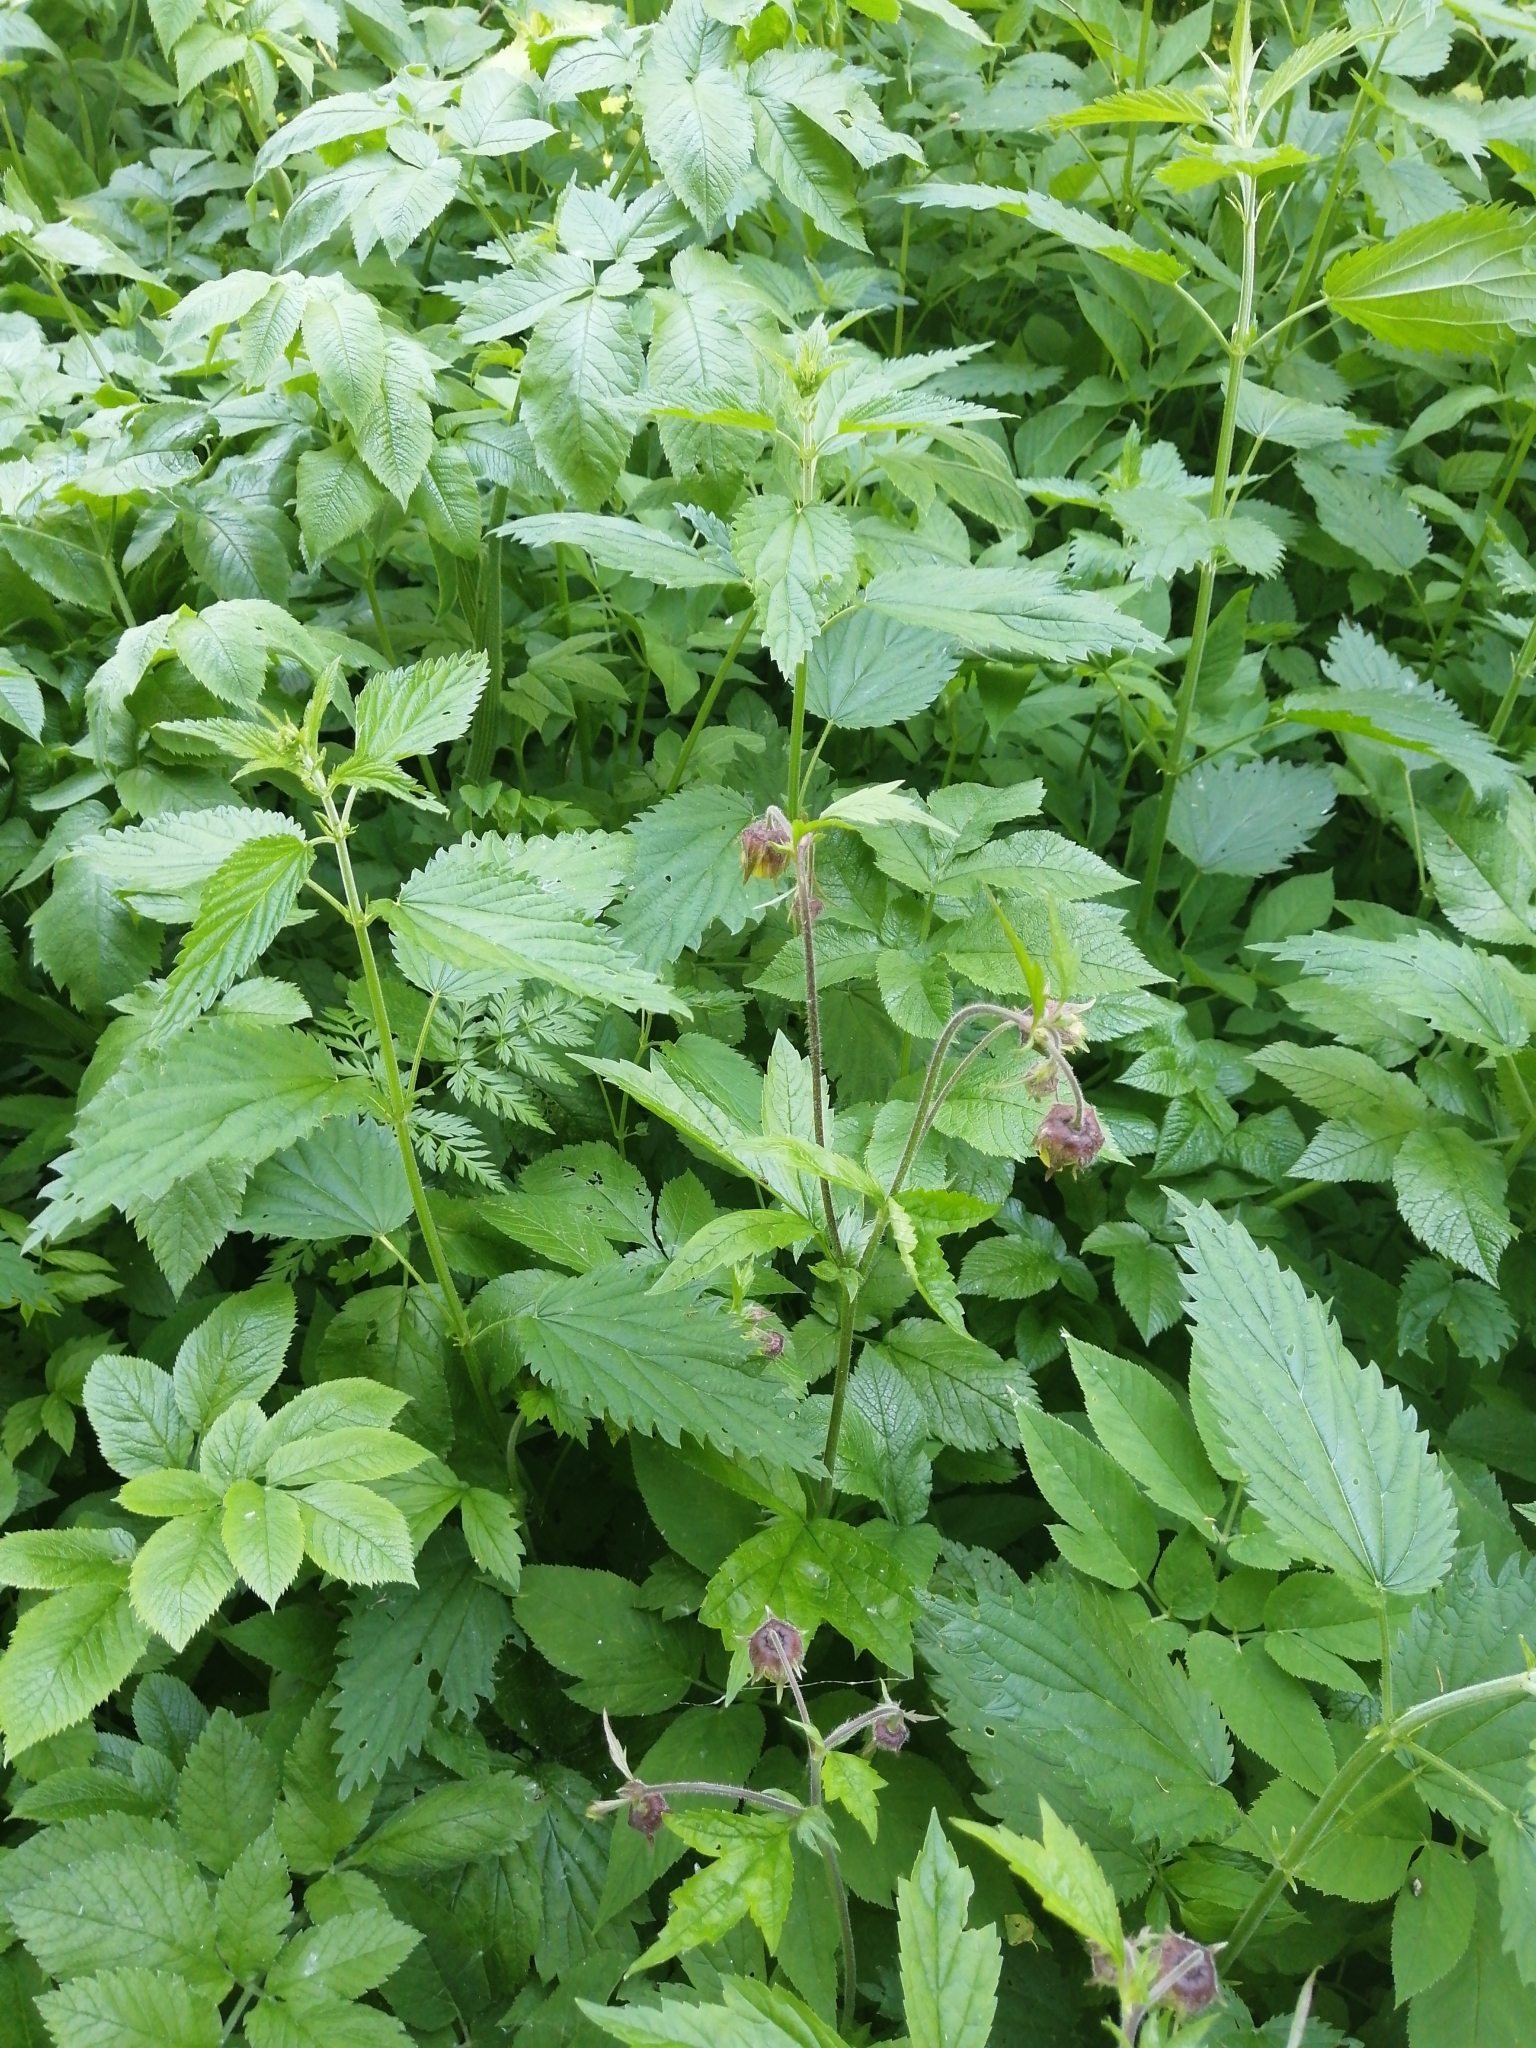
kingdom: Plantae
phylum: Tracheophyta
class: Magnoliopsida
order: Rosales
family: Rosaceae
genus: Geum
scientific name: Geum rivale
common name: Water avens
